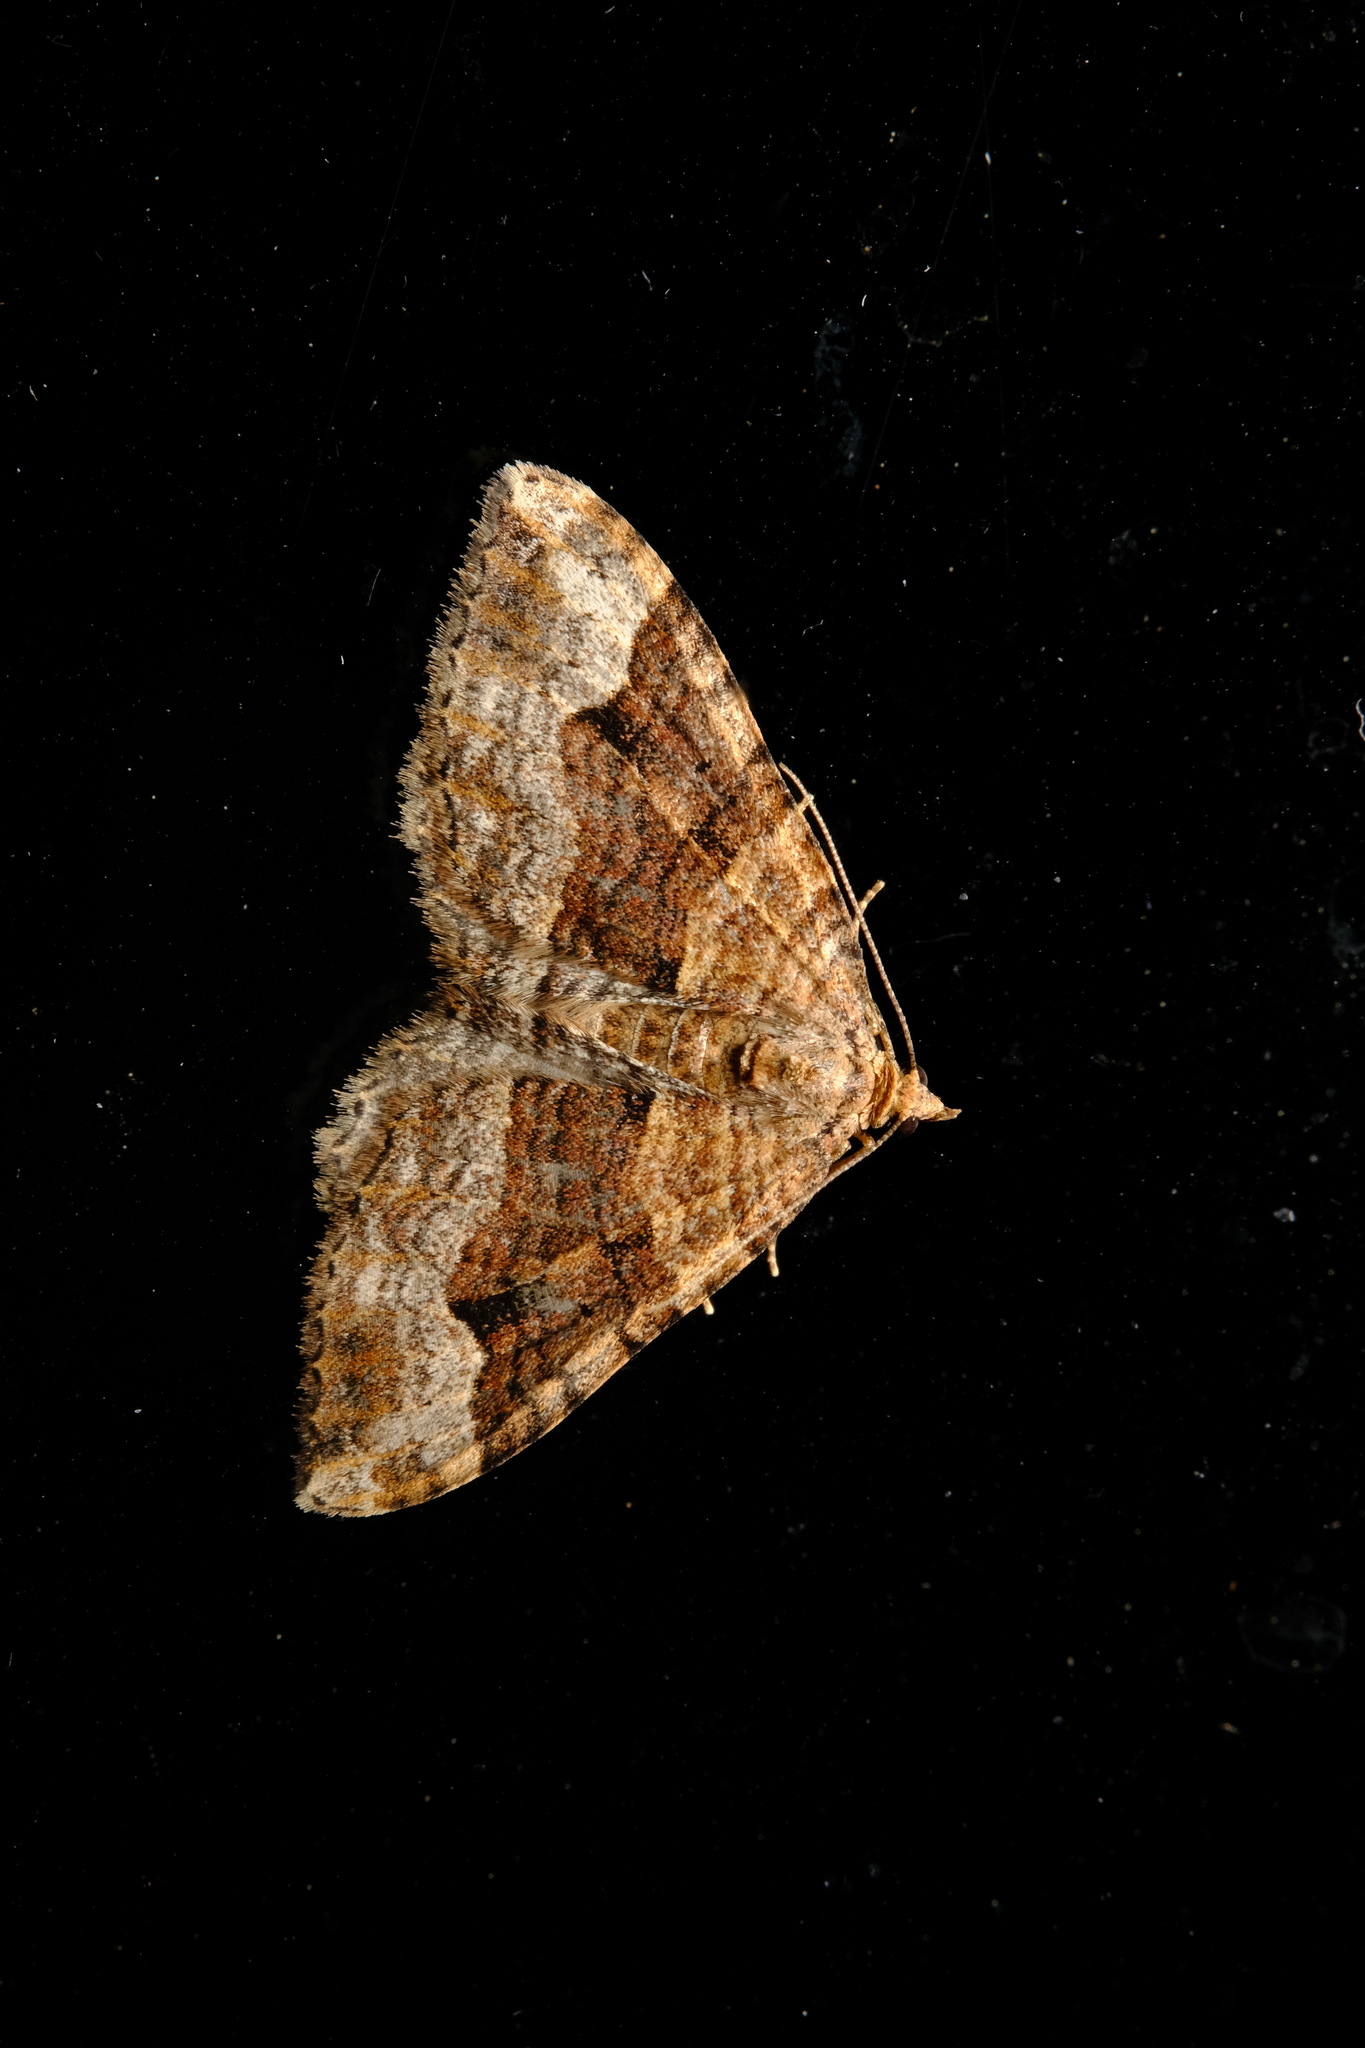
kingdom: Animalia
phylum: Arthropoda
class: Insecta
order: Lepidoptera
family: Geometridae
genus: Epyaxa
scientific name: Epyaxa subidaria
